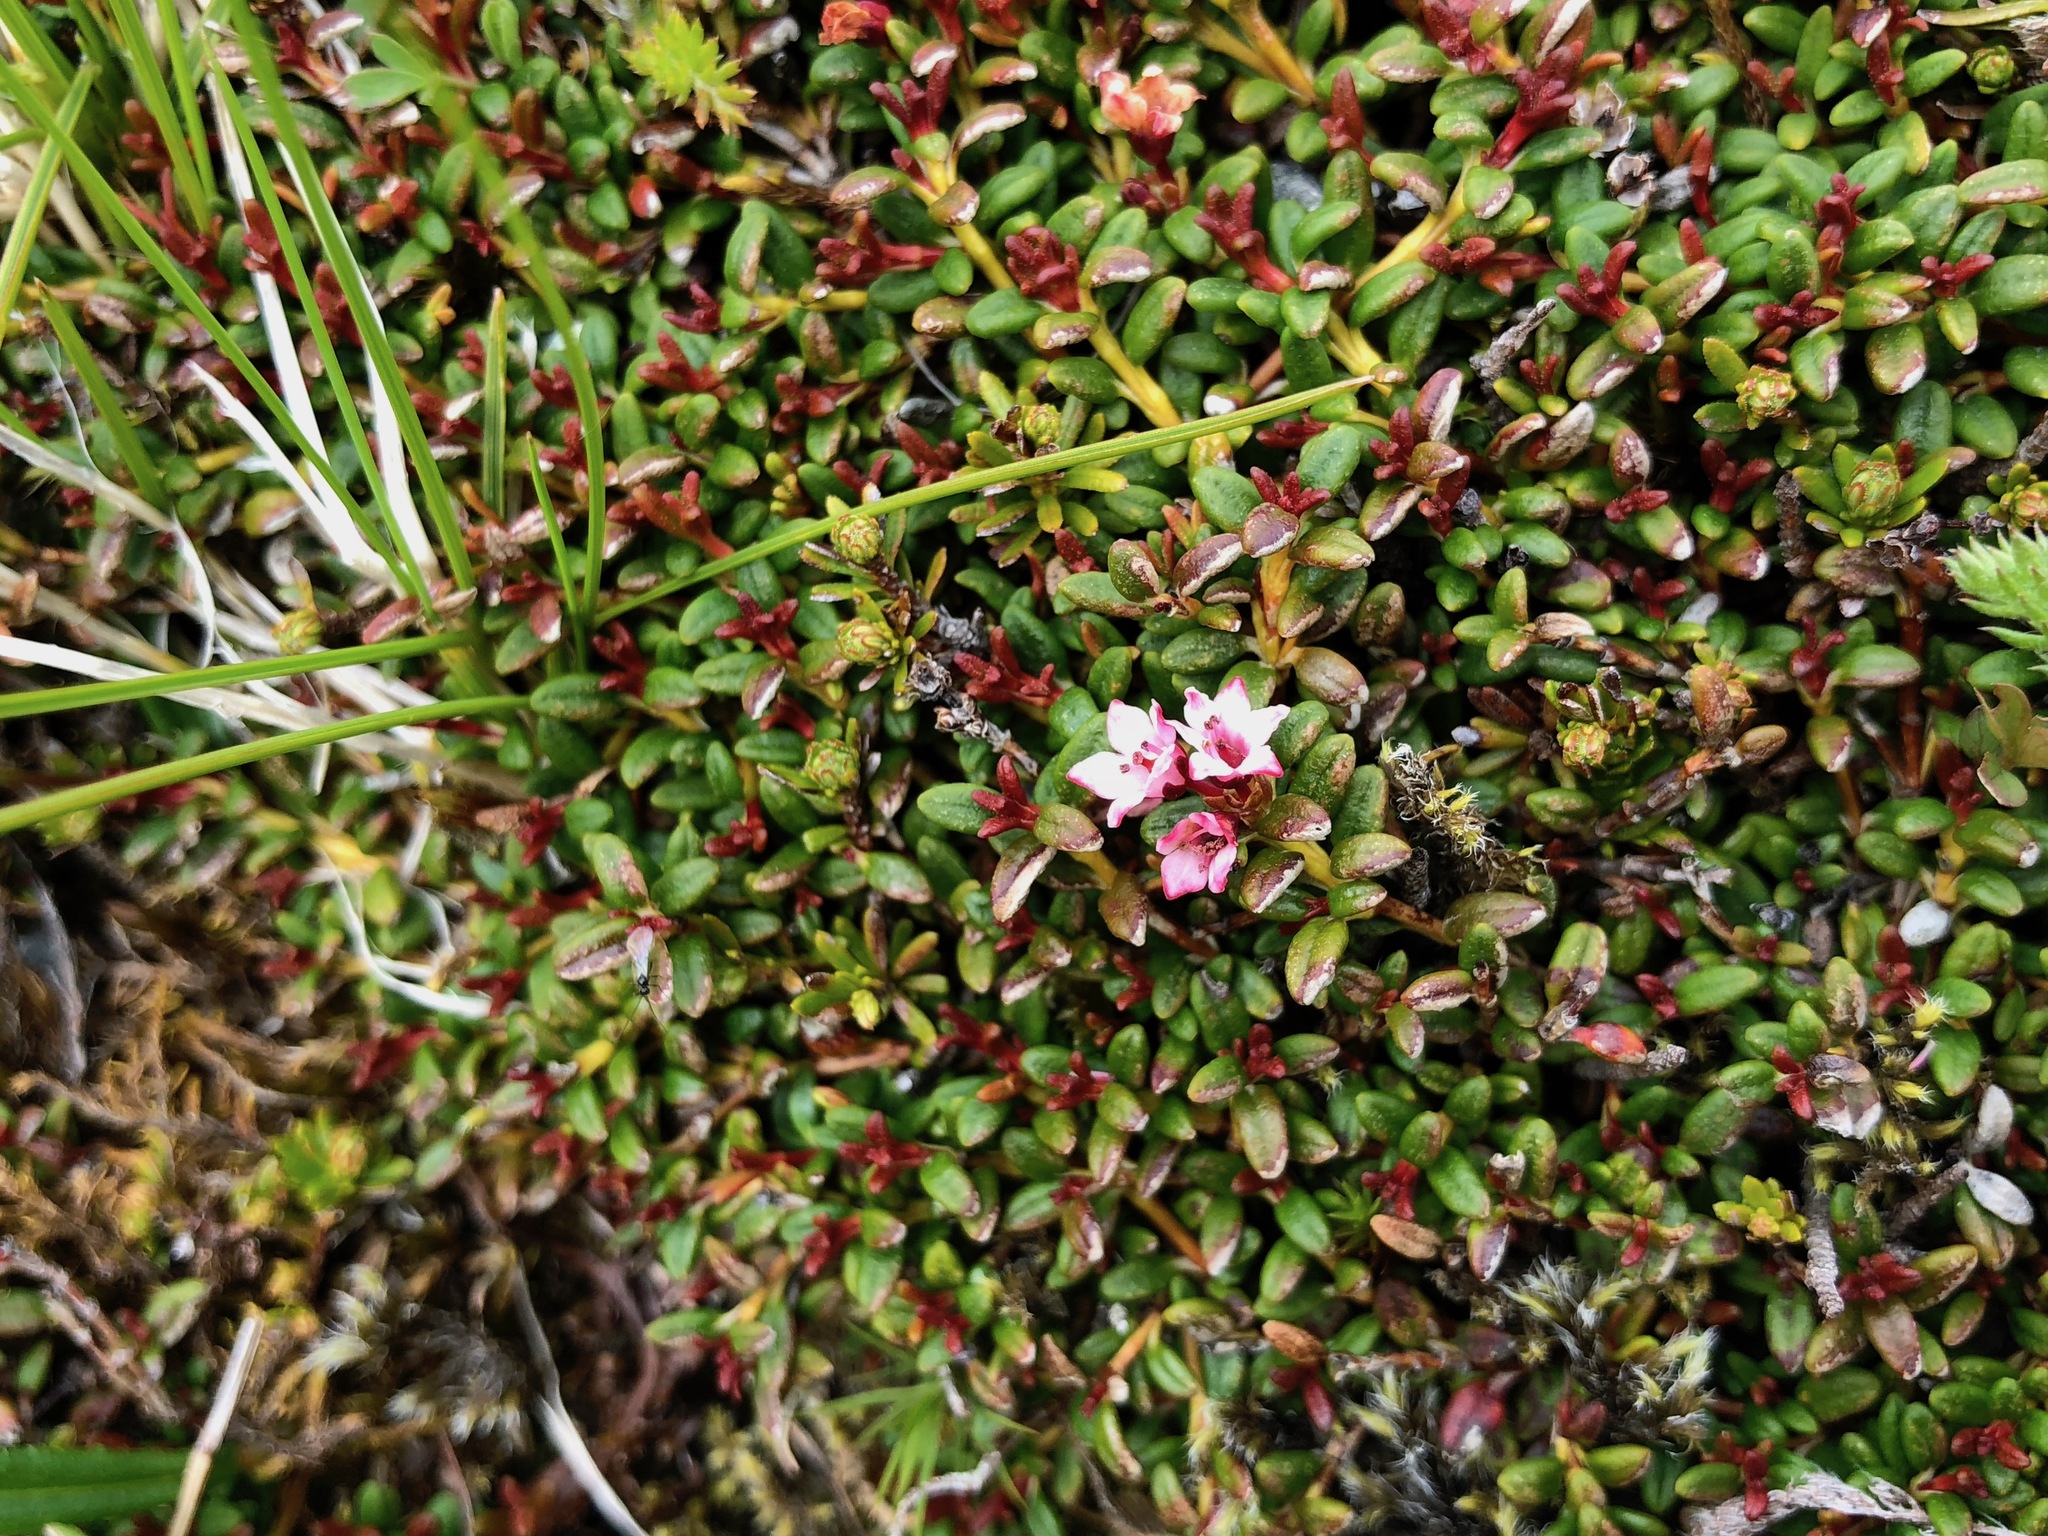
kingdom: Plantae
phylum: Tracheophyta
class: Magnoliopsida
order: Ericales
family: Ericaceae
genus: Kalmia
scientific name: Kalmia procumbens
